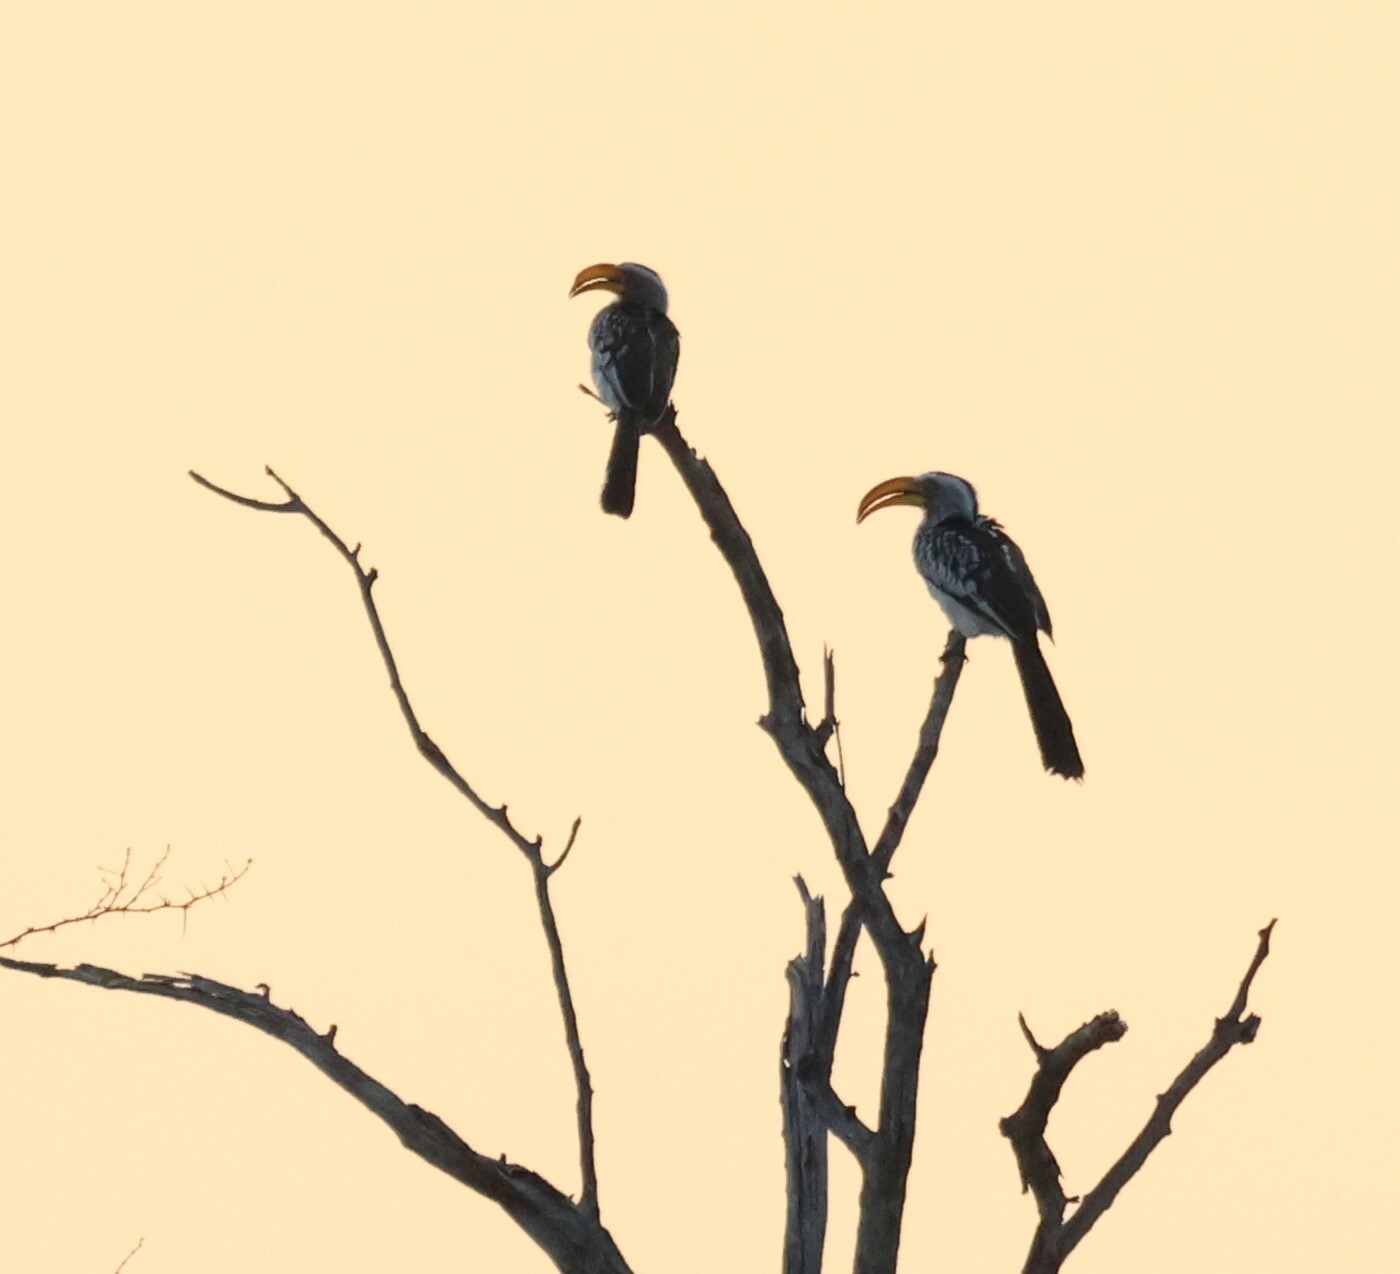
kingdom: Animalia
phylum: Chordata
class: Aves
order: Bucerotiformes
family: Bucerotidae
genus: Tockus
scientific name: Tockus leucomelas
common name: Southern yellow-billed hornbill
